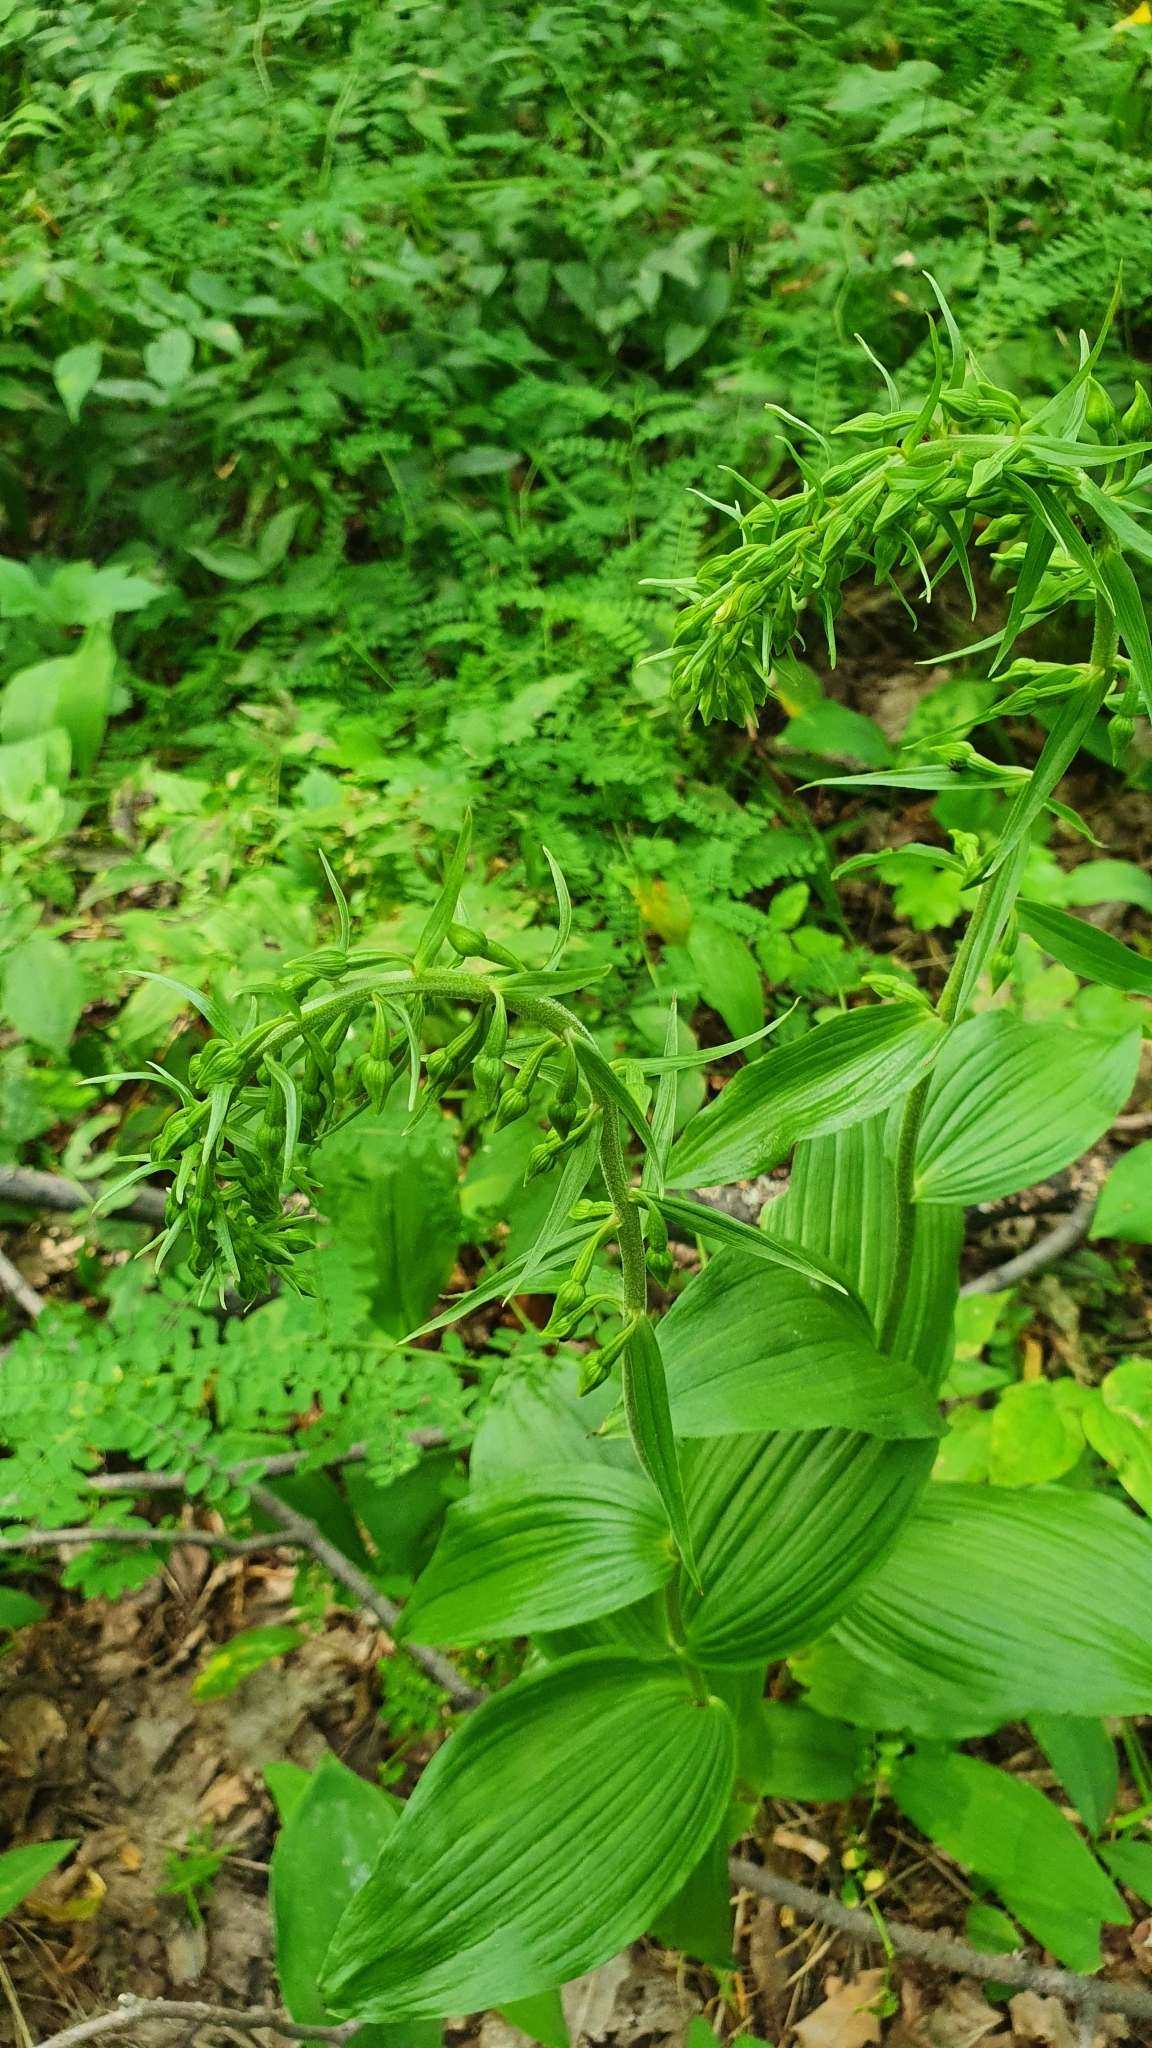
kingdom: Plantae
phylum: Tracheophyta
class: Liliopsida
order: Asparagales
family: Orchidaceae
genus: Epipactis
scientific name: Epipactis helleborine
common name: Broad-leaved helleborine
